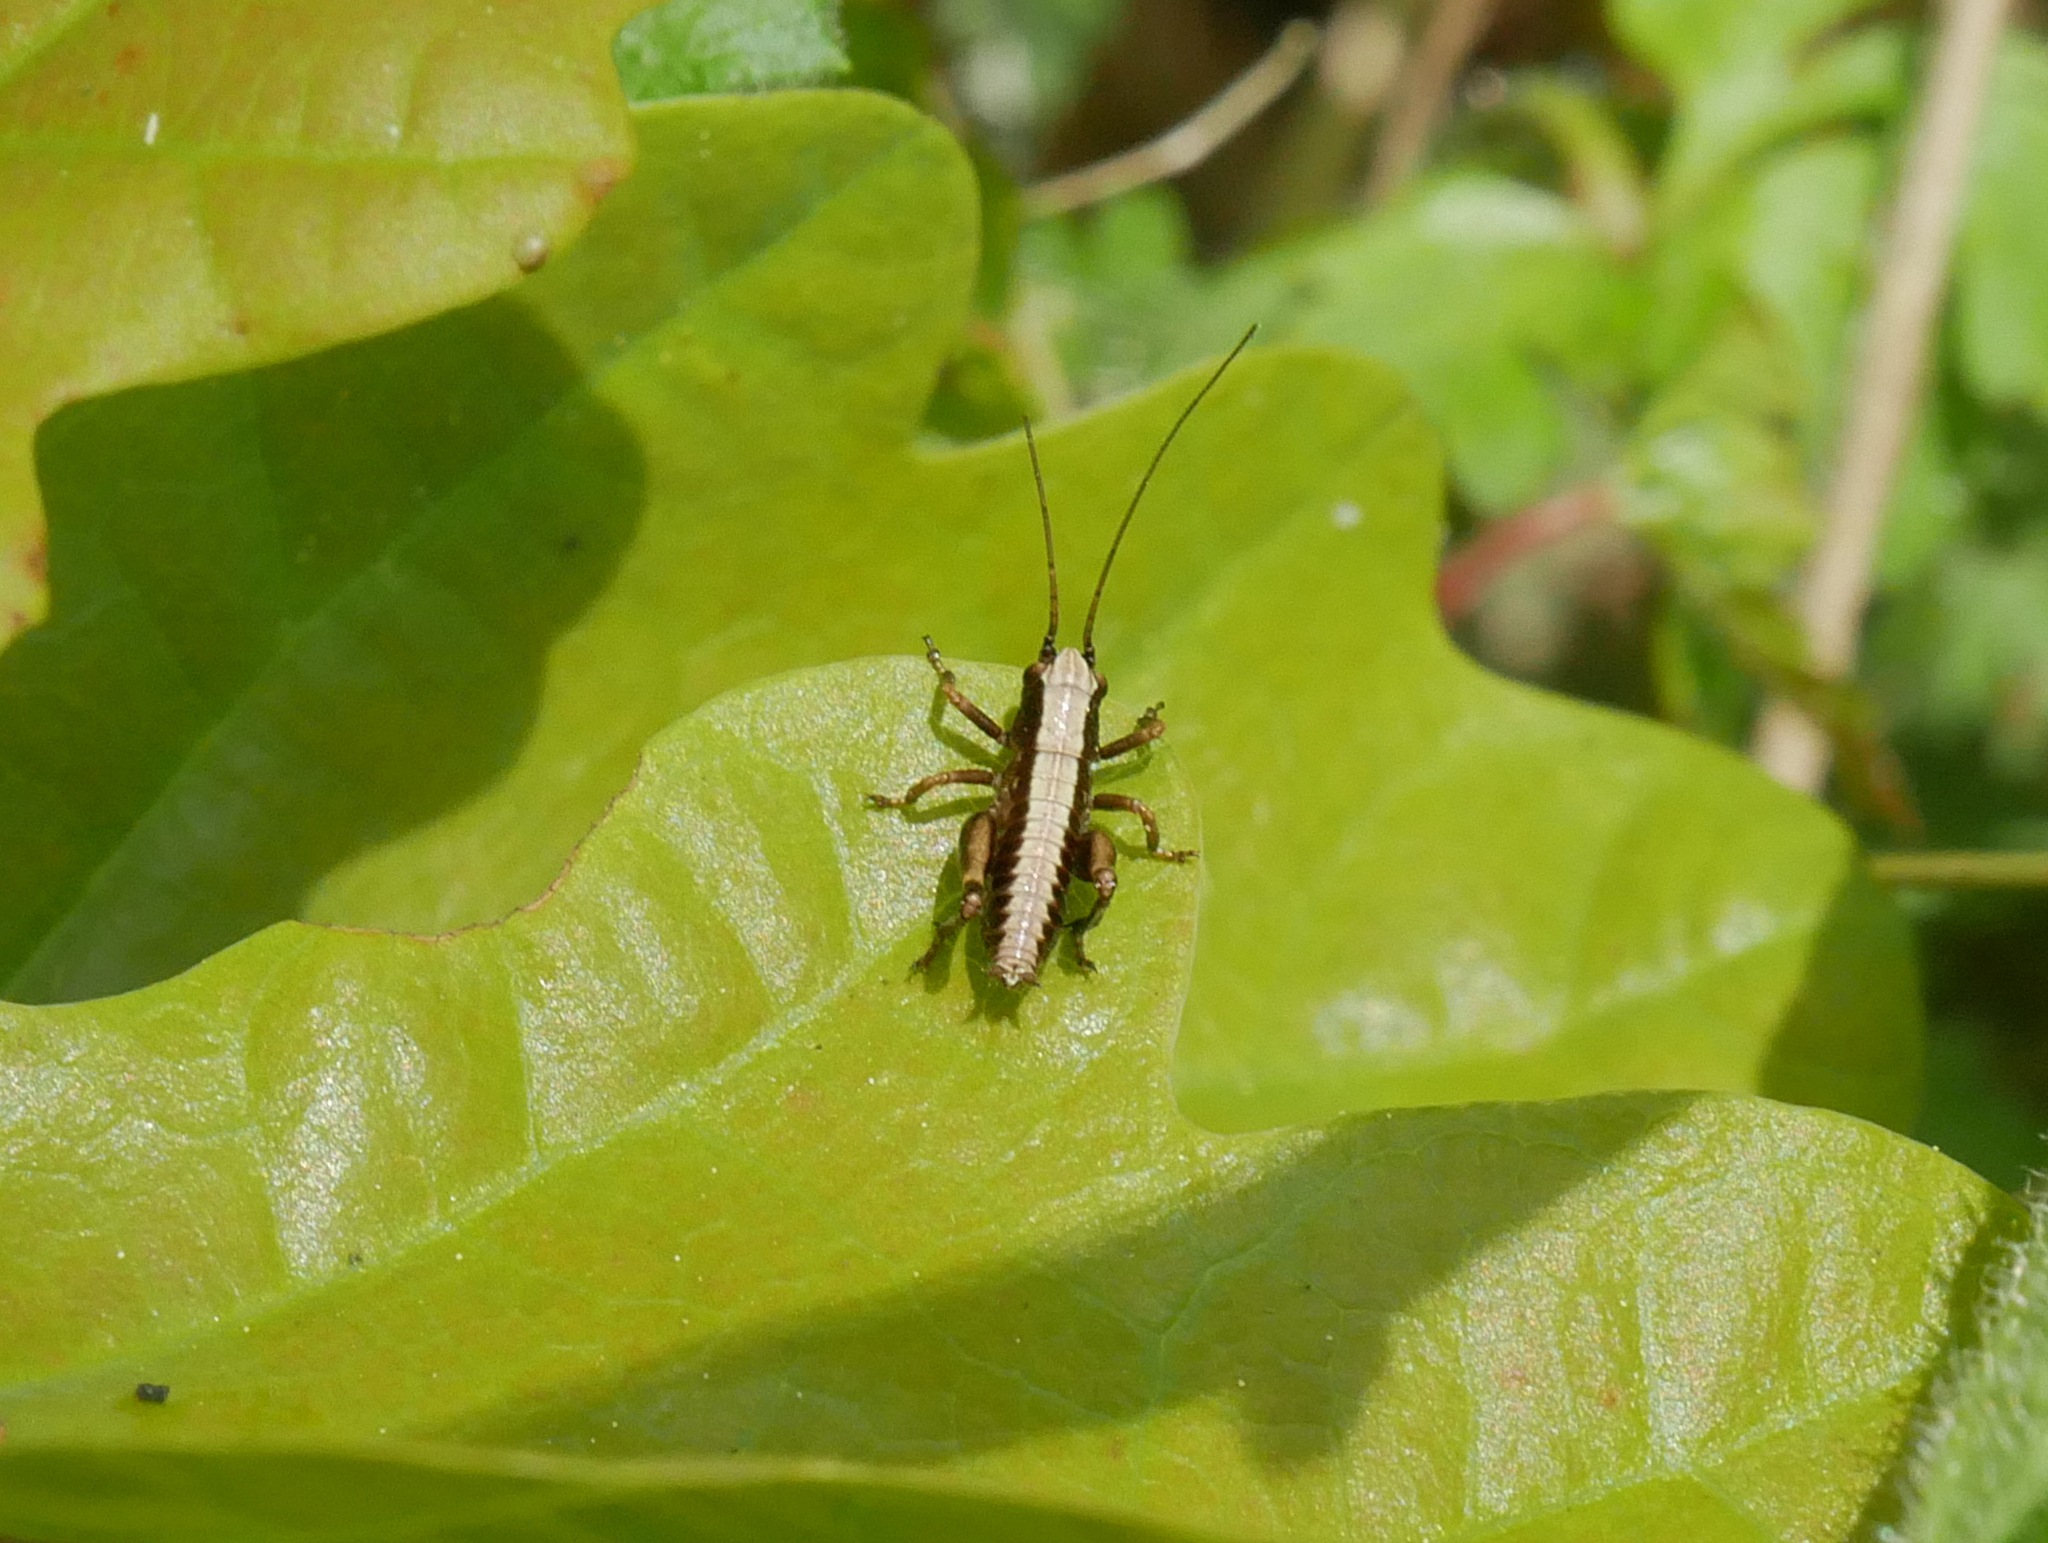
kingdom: Animalia
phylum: Arthropoda
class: Insecta
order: Orthoptera
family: Tettigoniidae
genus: Pholidoptera
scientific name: Pholidoptera griseoaptera
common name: Dark bush-cricket
